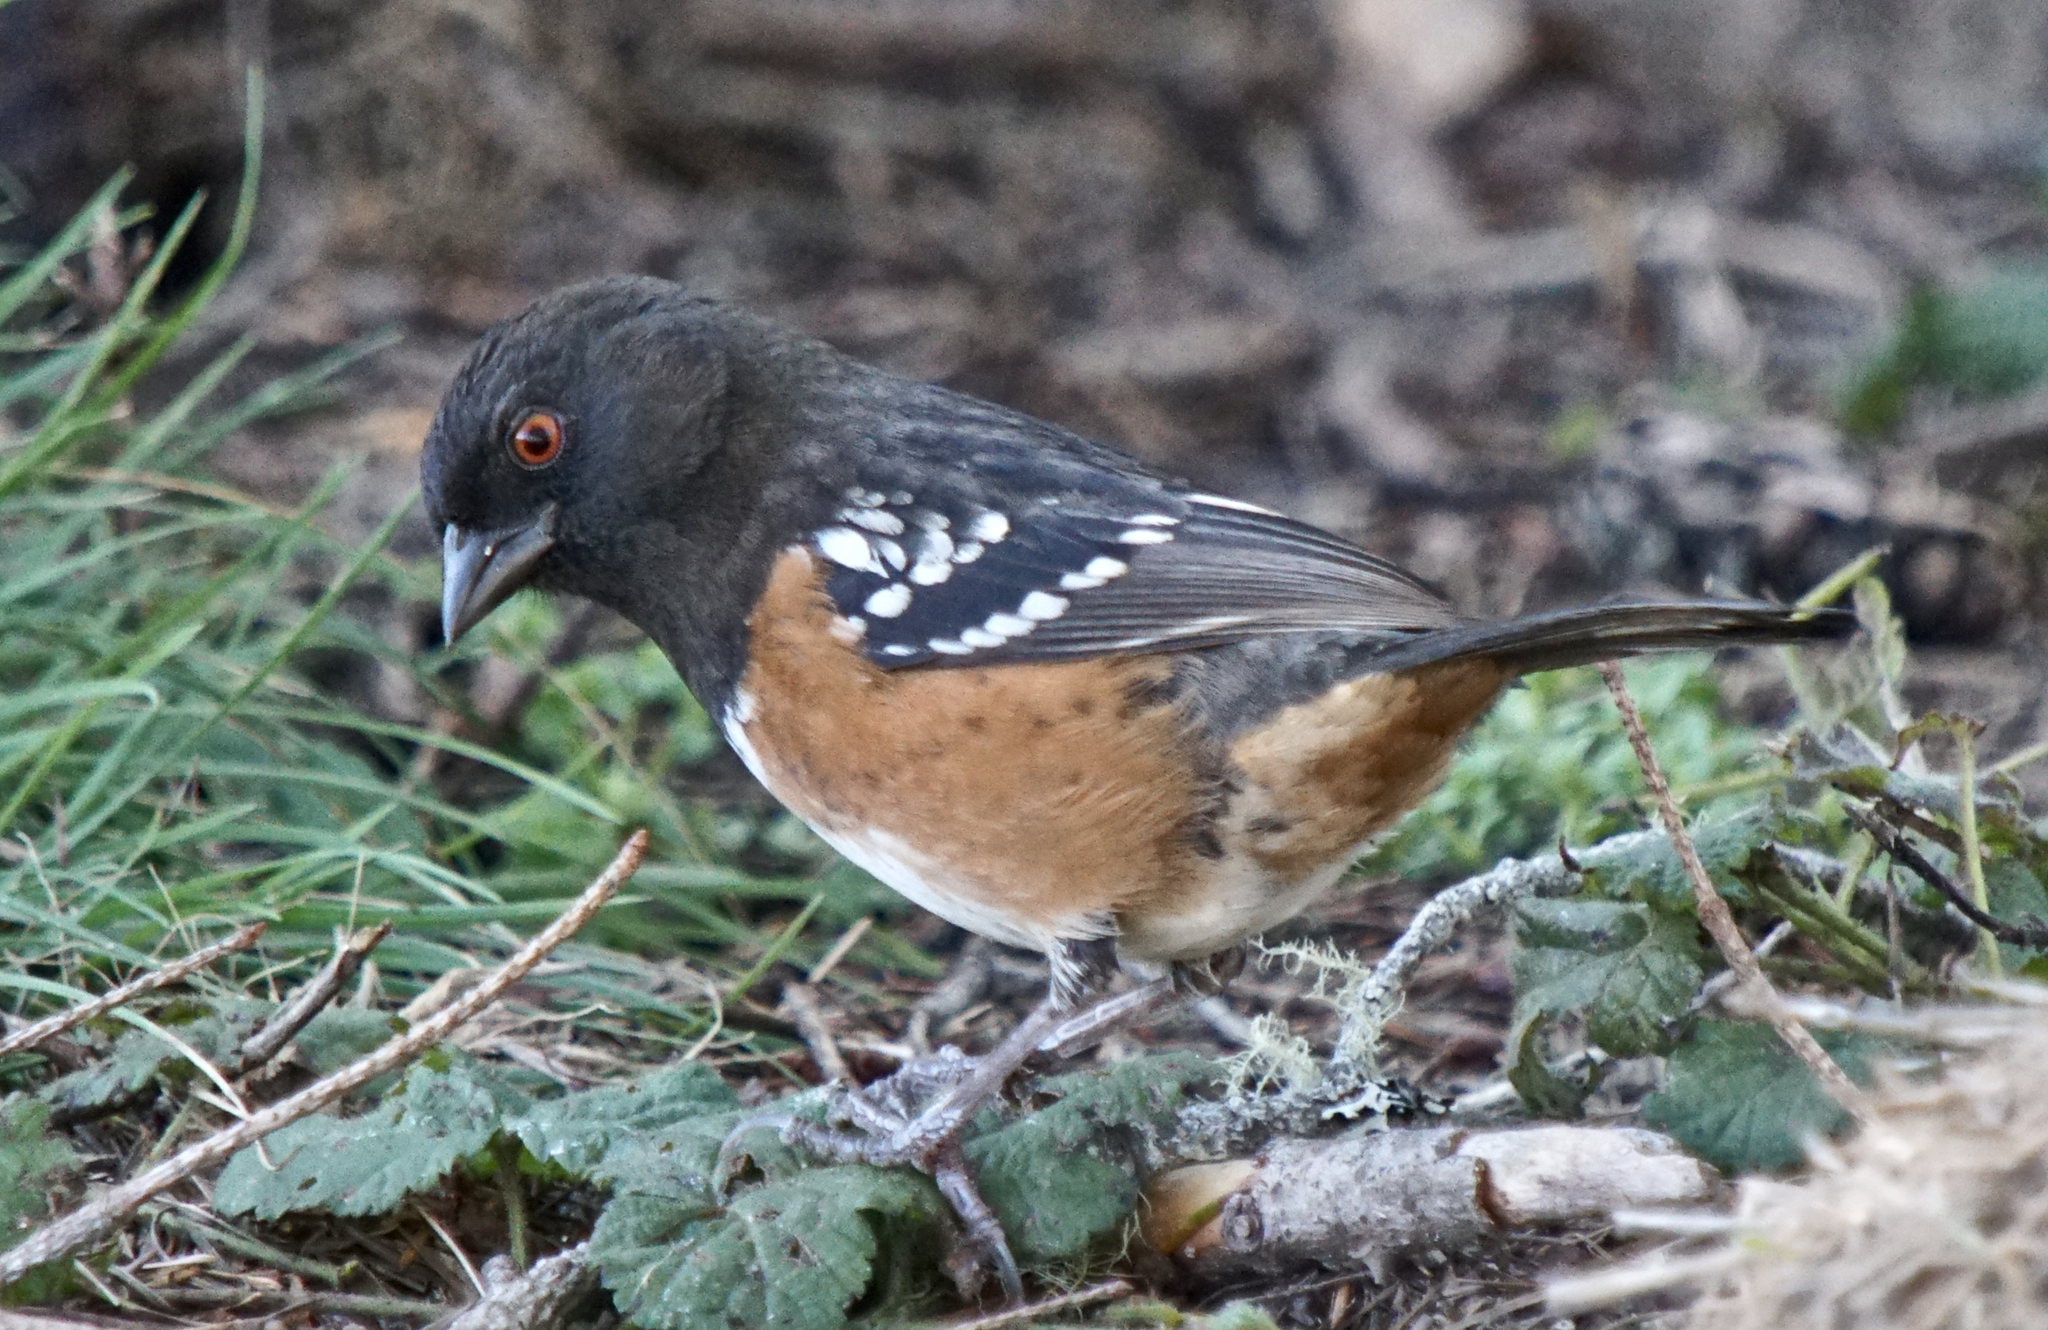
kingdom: Animalia
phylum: Chordata
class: Aves
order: Passeriformes
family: Passerellidae
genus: Pipilo
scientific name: Pipilo maculatus
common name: Spotted towhee
